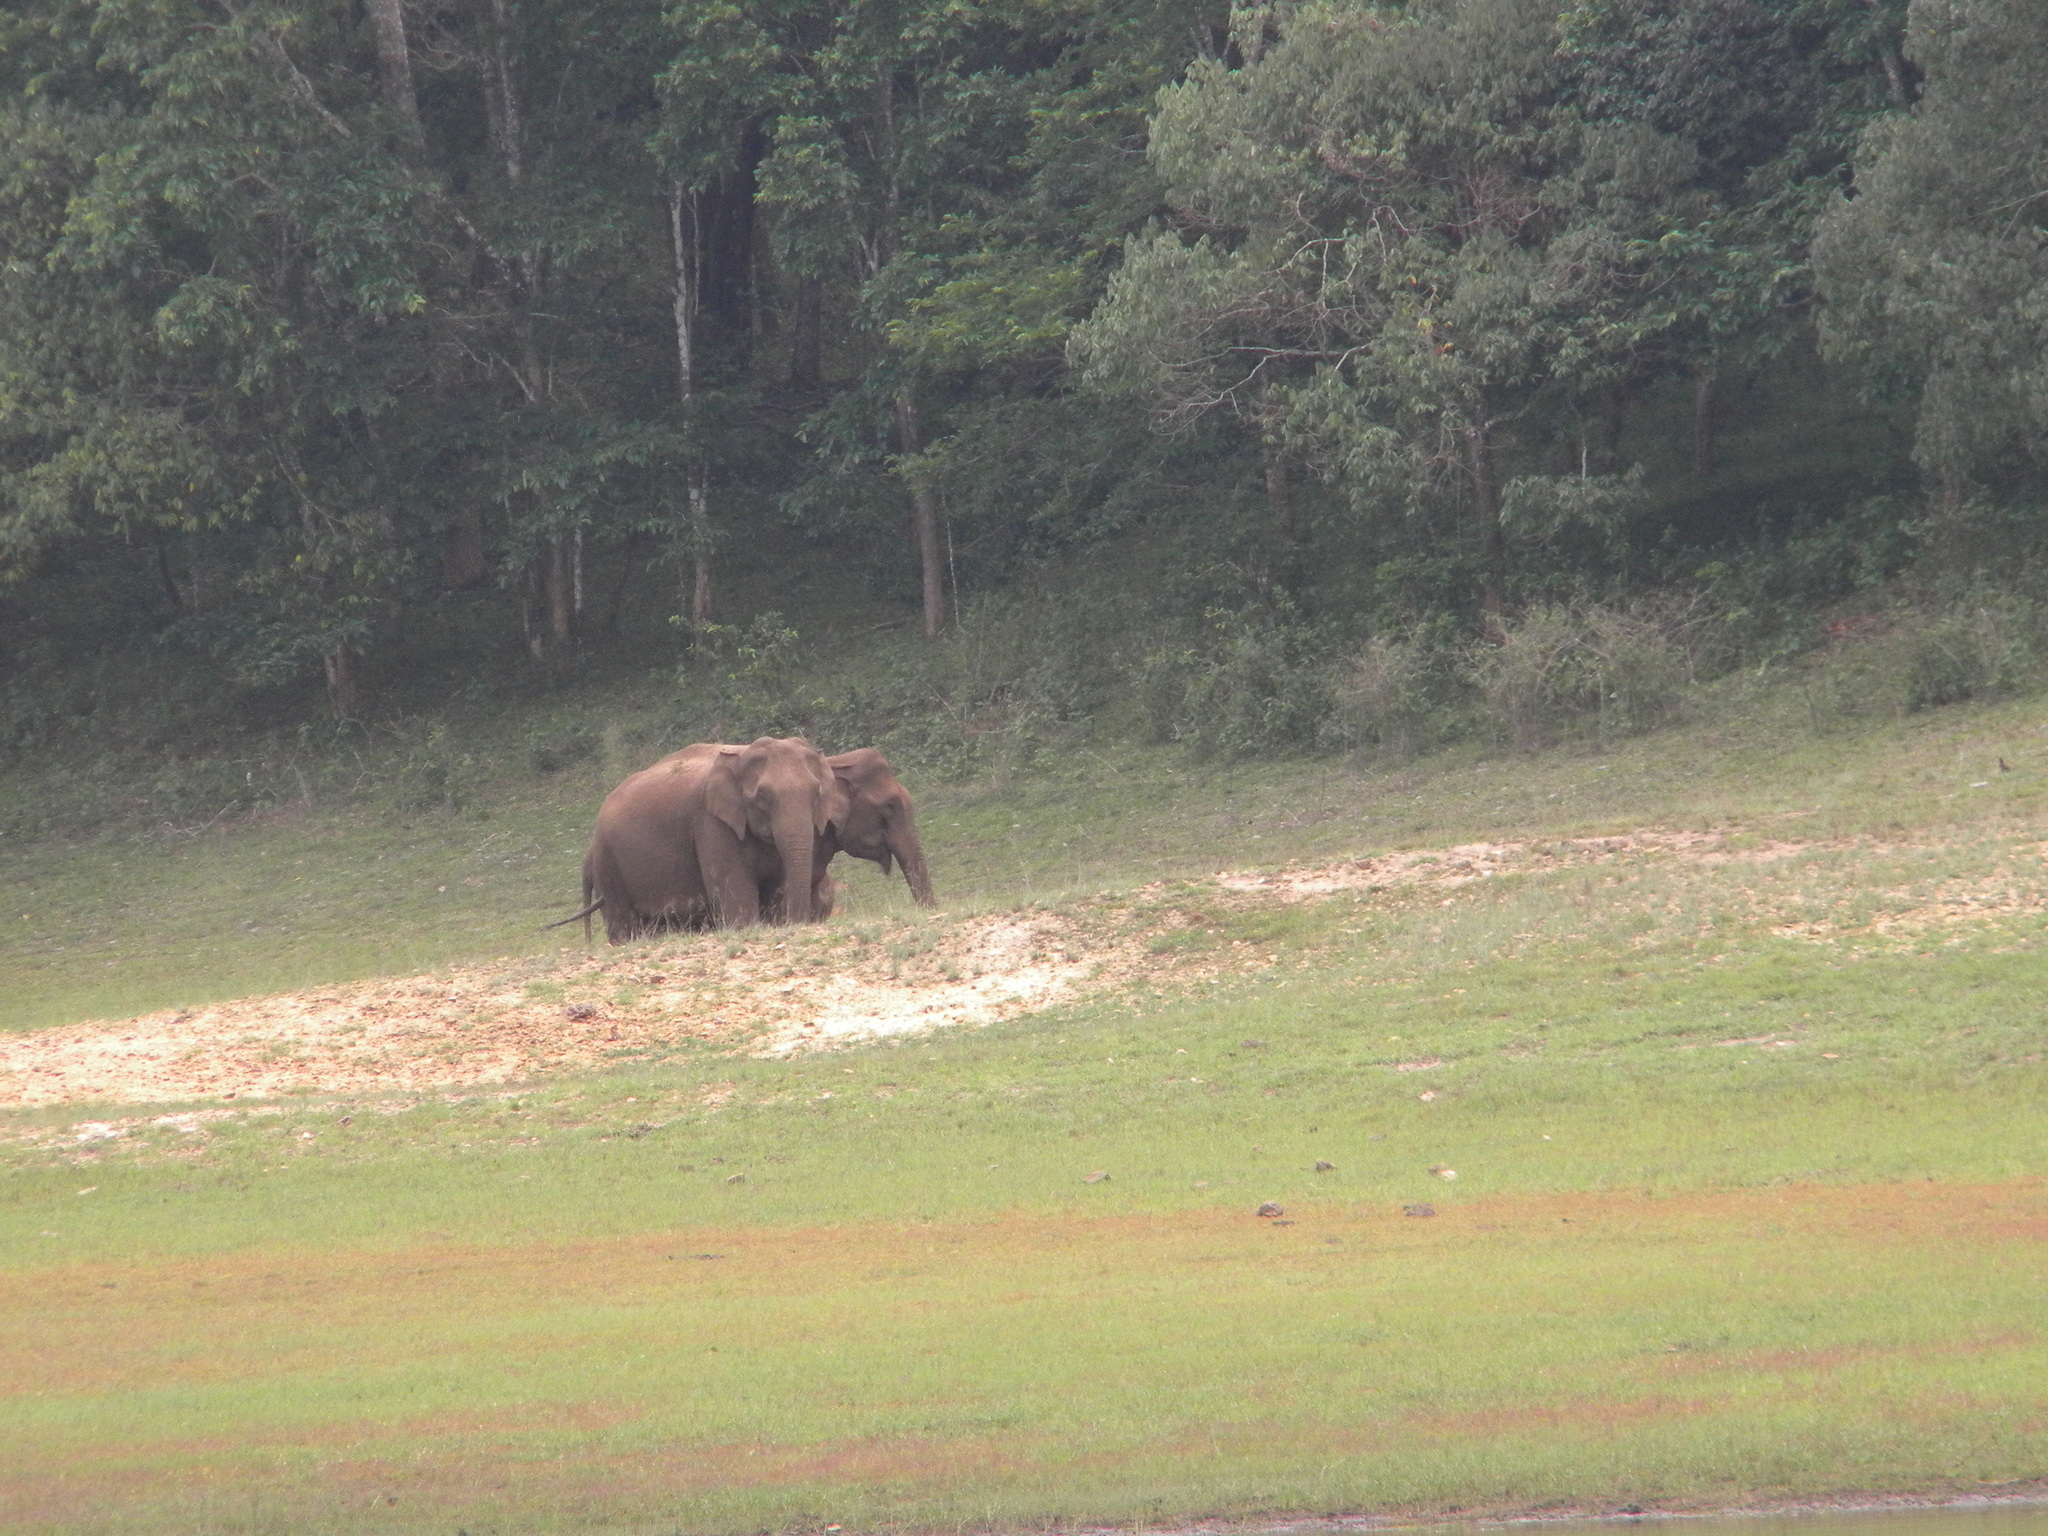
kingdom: Animalia
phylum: Chordata
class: Mammalia
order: Proboscidea
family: Elephantidae
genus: Elephas
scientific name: Elephas maximus
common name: Asian elephant
